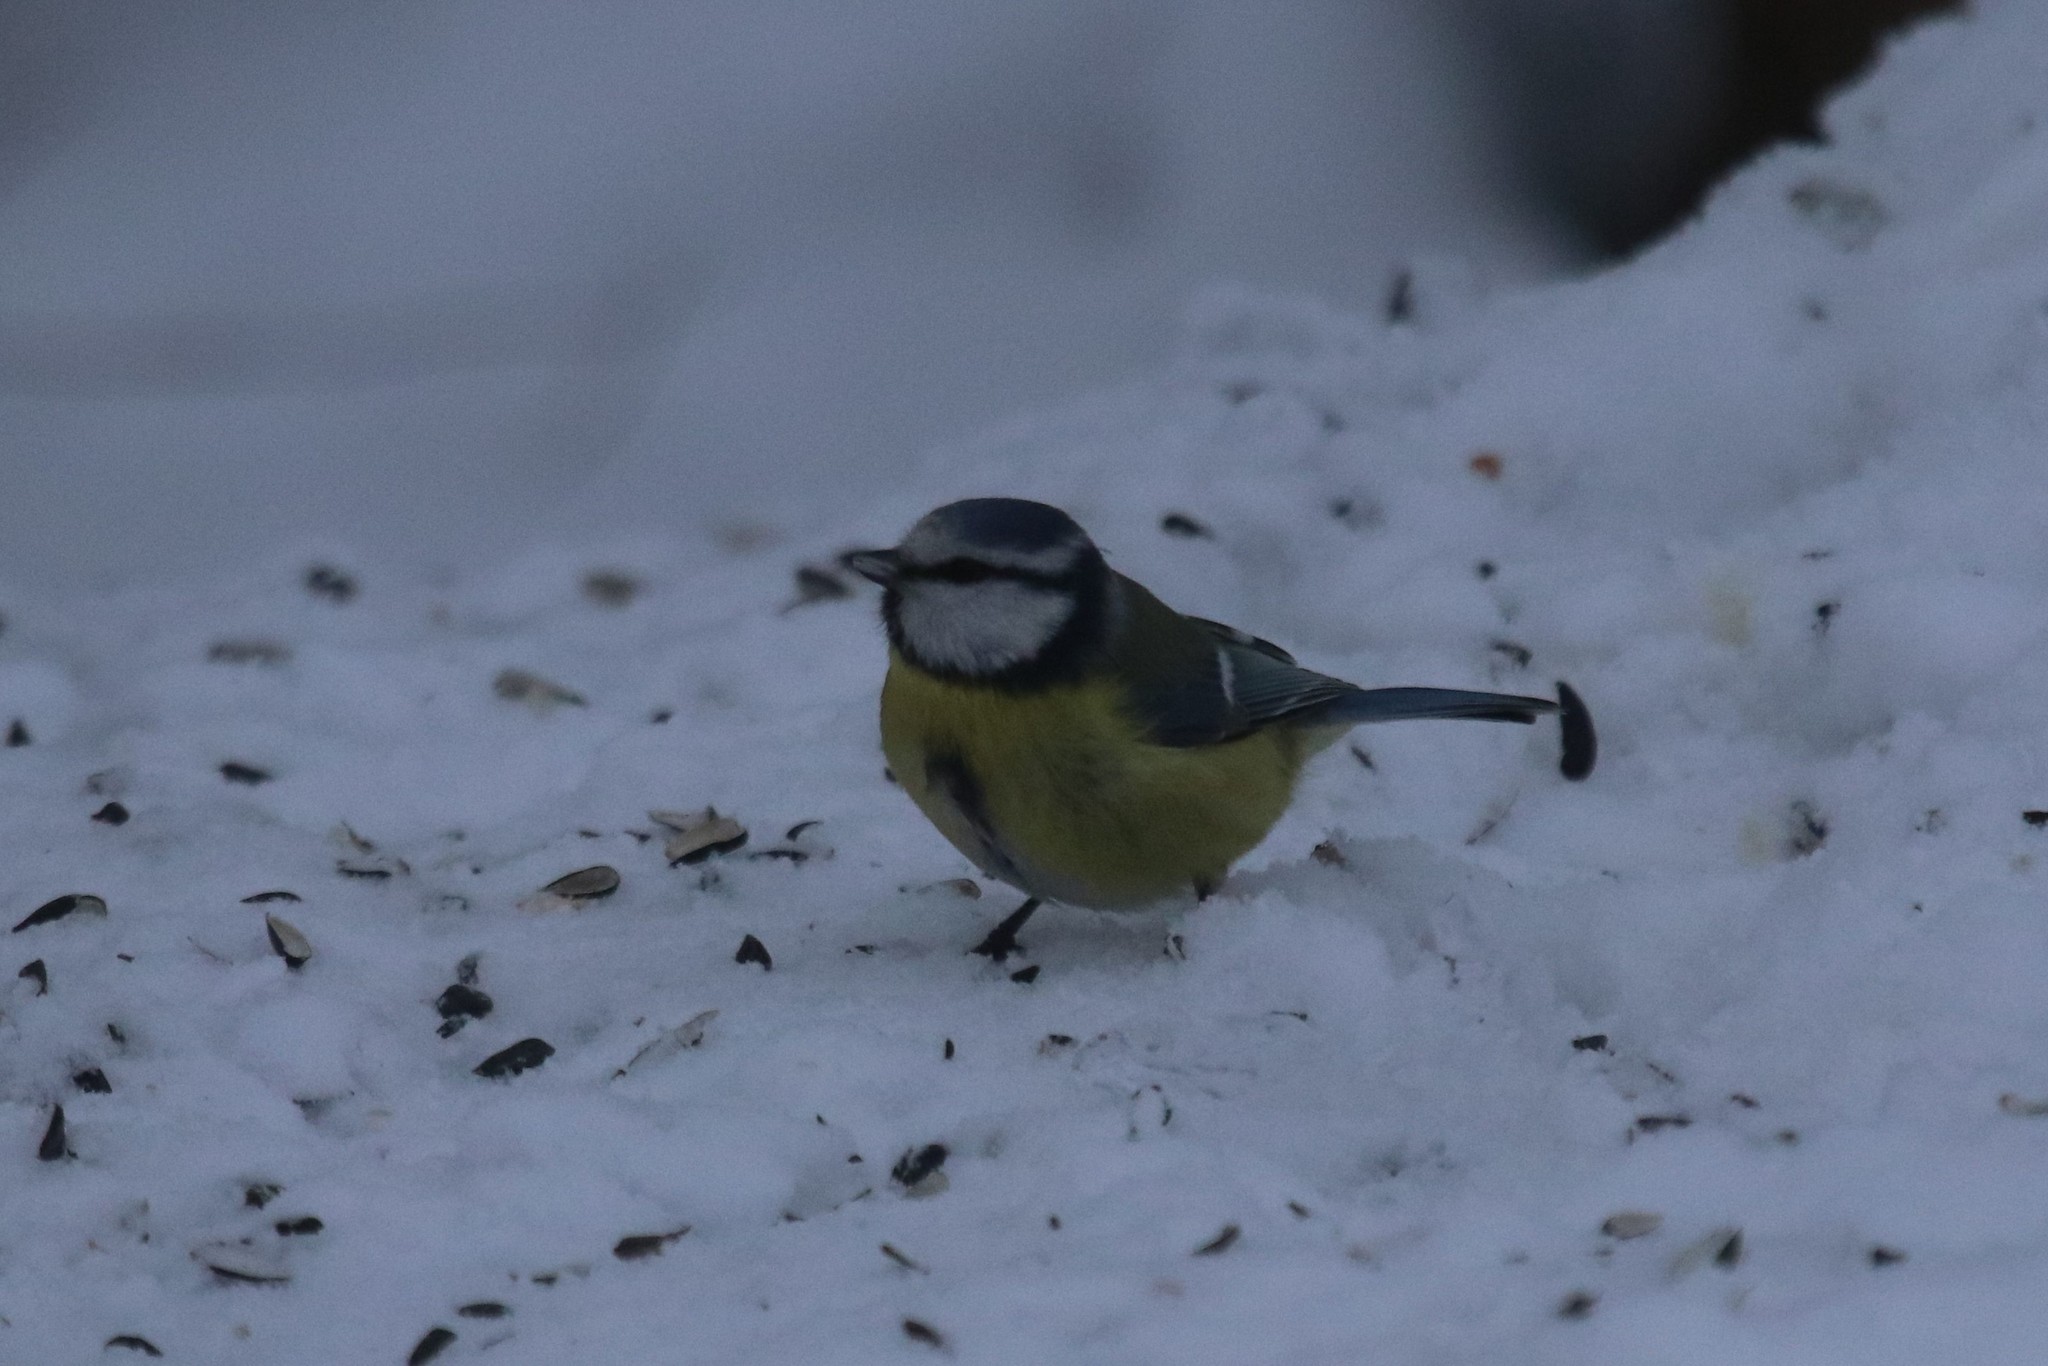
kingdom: Animalia
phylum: Chordata
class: Aves
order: Passeriformes
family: Paridae
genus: Cyanistes
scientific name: Cyanistes caeruleus
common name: Eurasian blue tit
